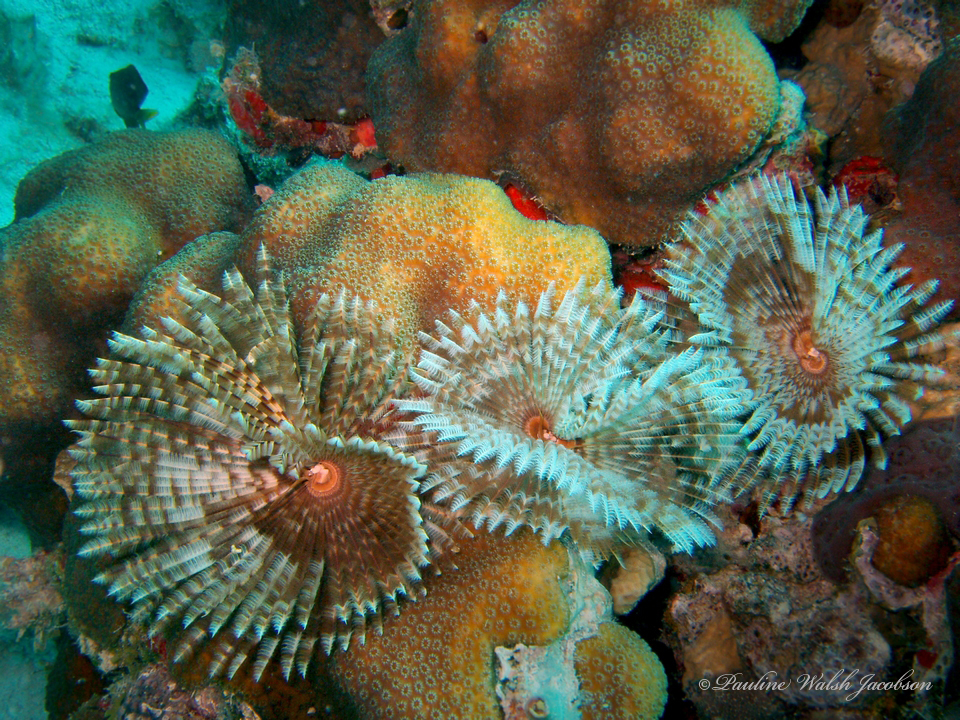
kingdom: Animalia
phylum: Annelida
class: Polychaeta
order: Sabellida
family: Sabellidae
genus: Sabellastarte
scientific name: Sabellastarte magnifica
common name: Giant feather-duster worm
